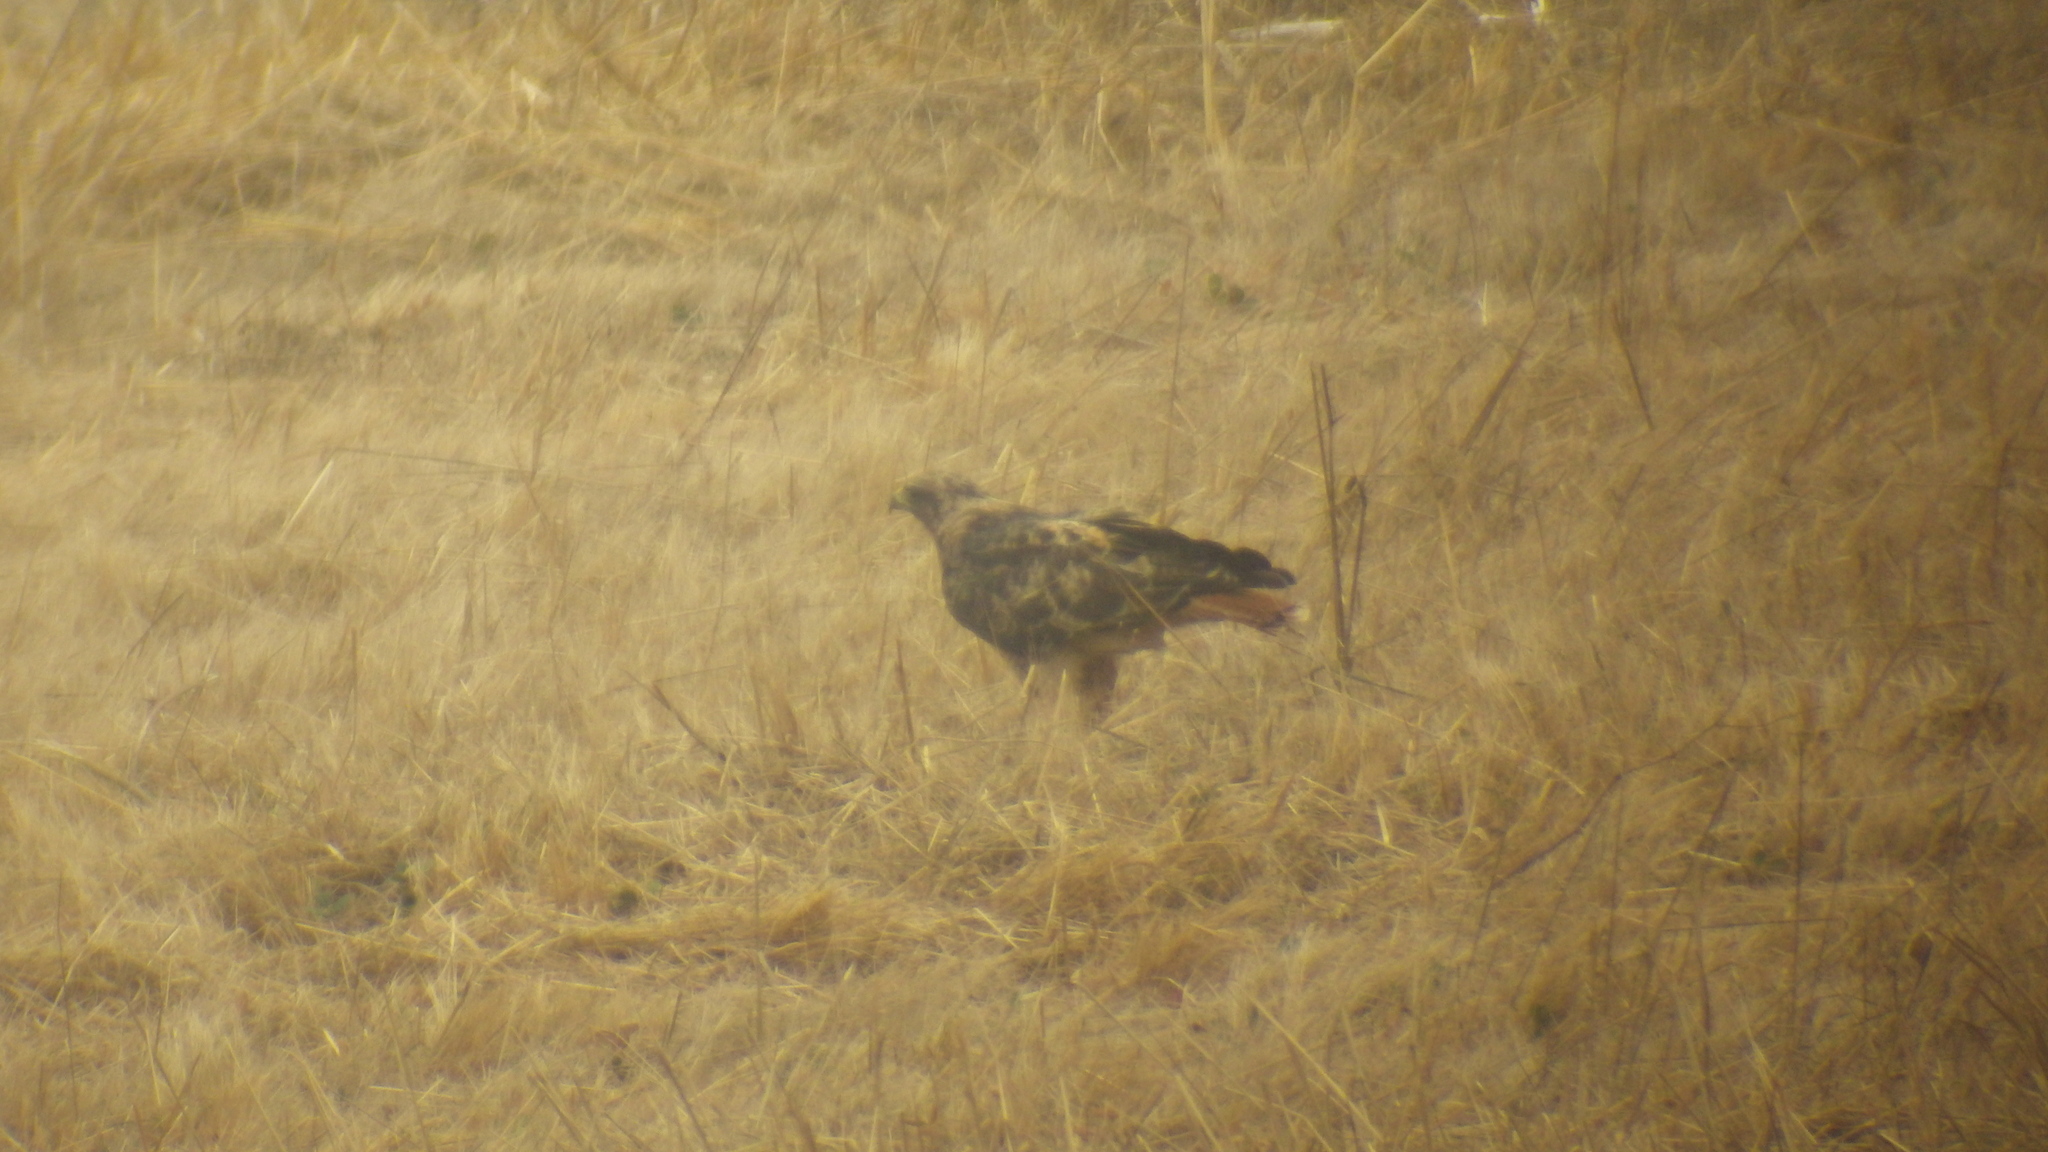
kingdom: Animalia
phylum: Chordata
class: Aves
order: Accipitriformes
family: Accipitridae
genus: Buteo
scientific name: Buteo jamaicensis
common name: Red-tailed hawk
